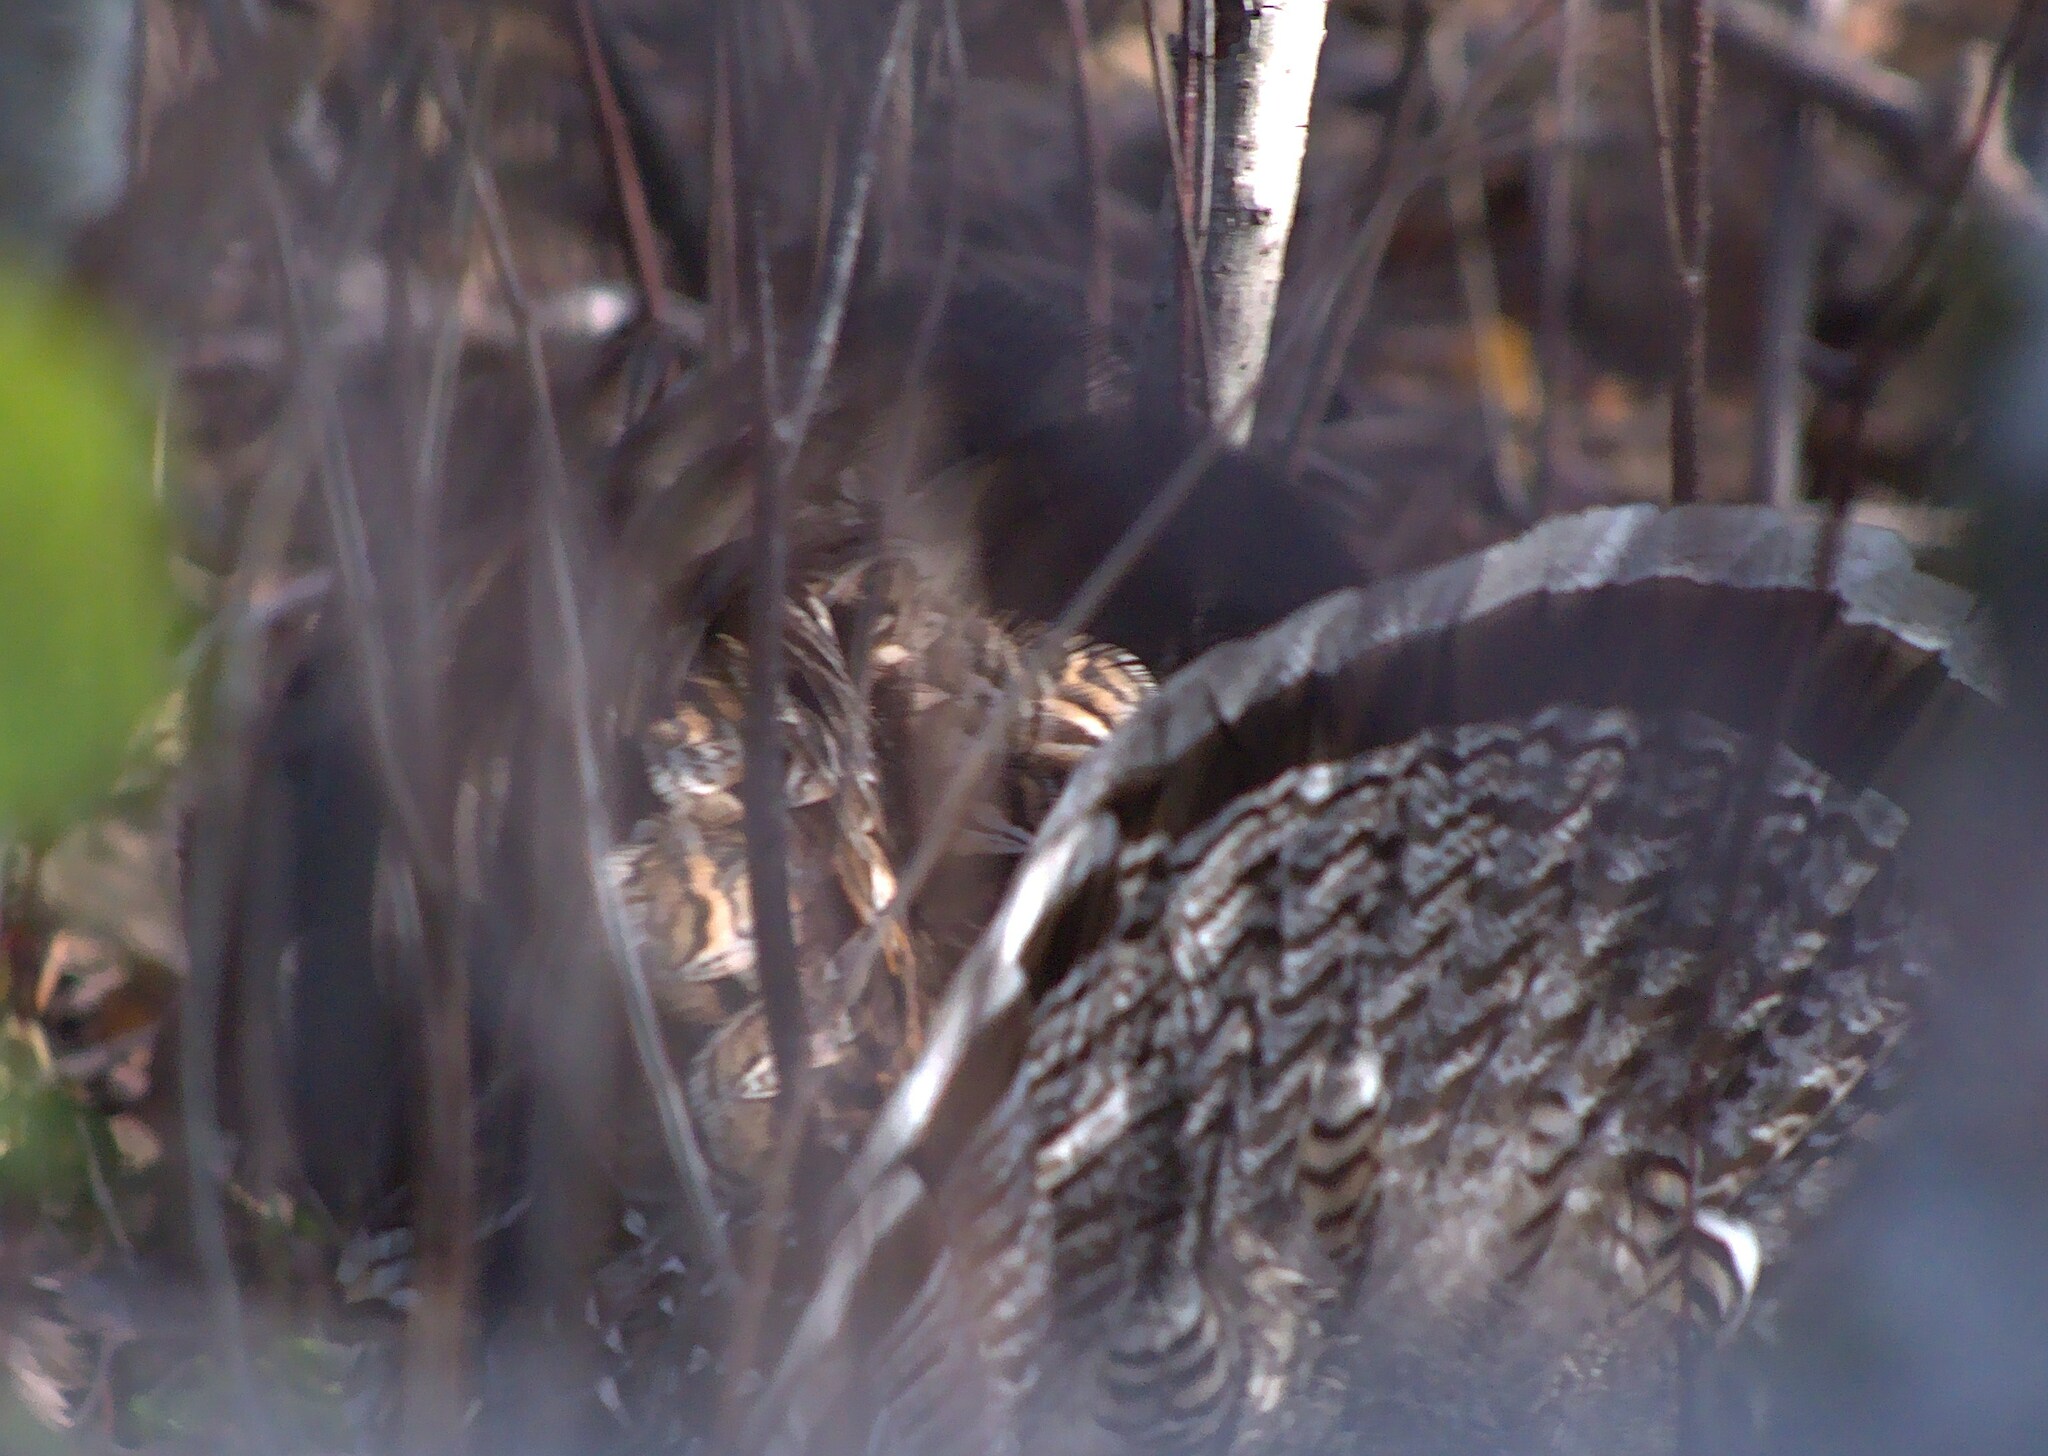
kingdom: Animalia
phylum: Chordata
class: Aves
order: Galliformes
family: Phasianidae
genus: Bonasa
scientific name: Bonasa umbellus
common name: Ruffed grouse
